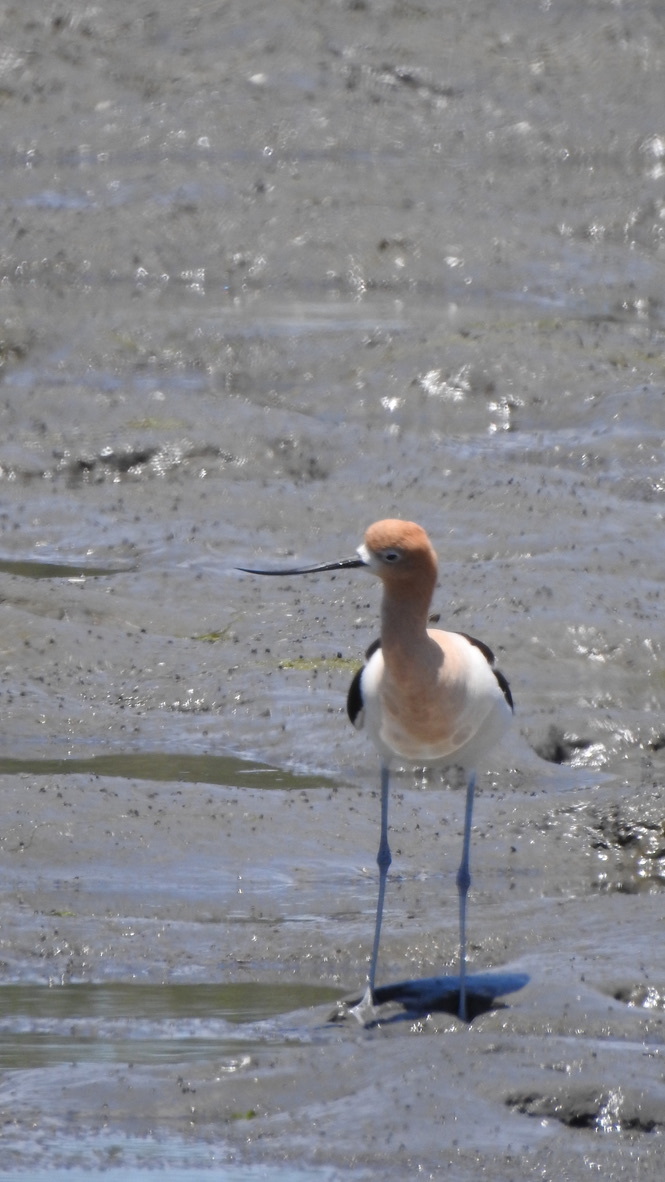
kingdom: Animalia
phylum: Chordata
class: Aves
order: Charadriiformes
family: Recurvirostridae
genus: Recurvirostra
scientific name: Recurvirostra americana
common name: American avocet
